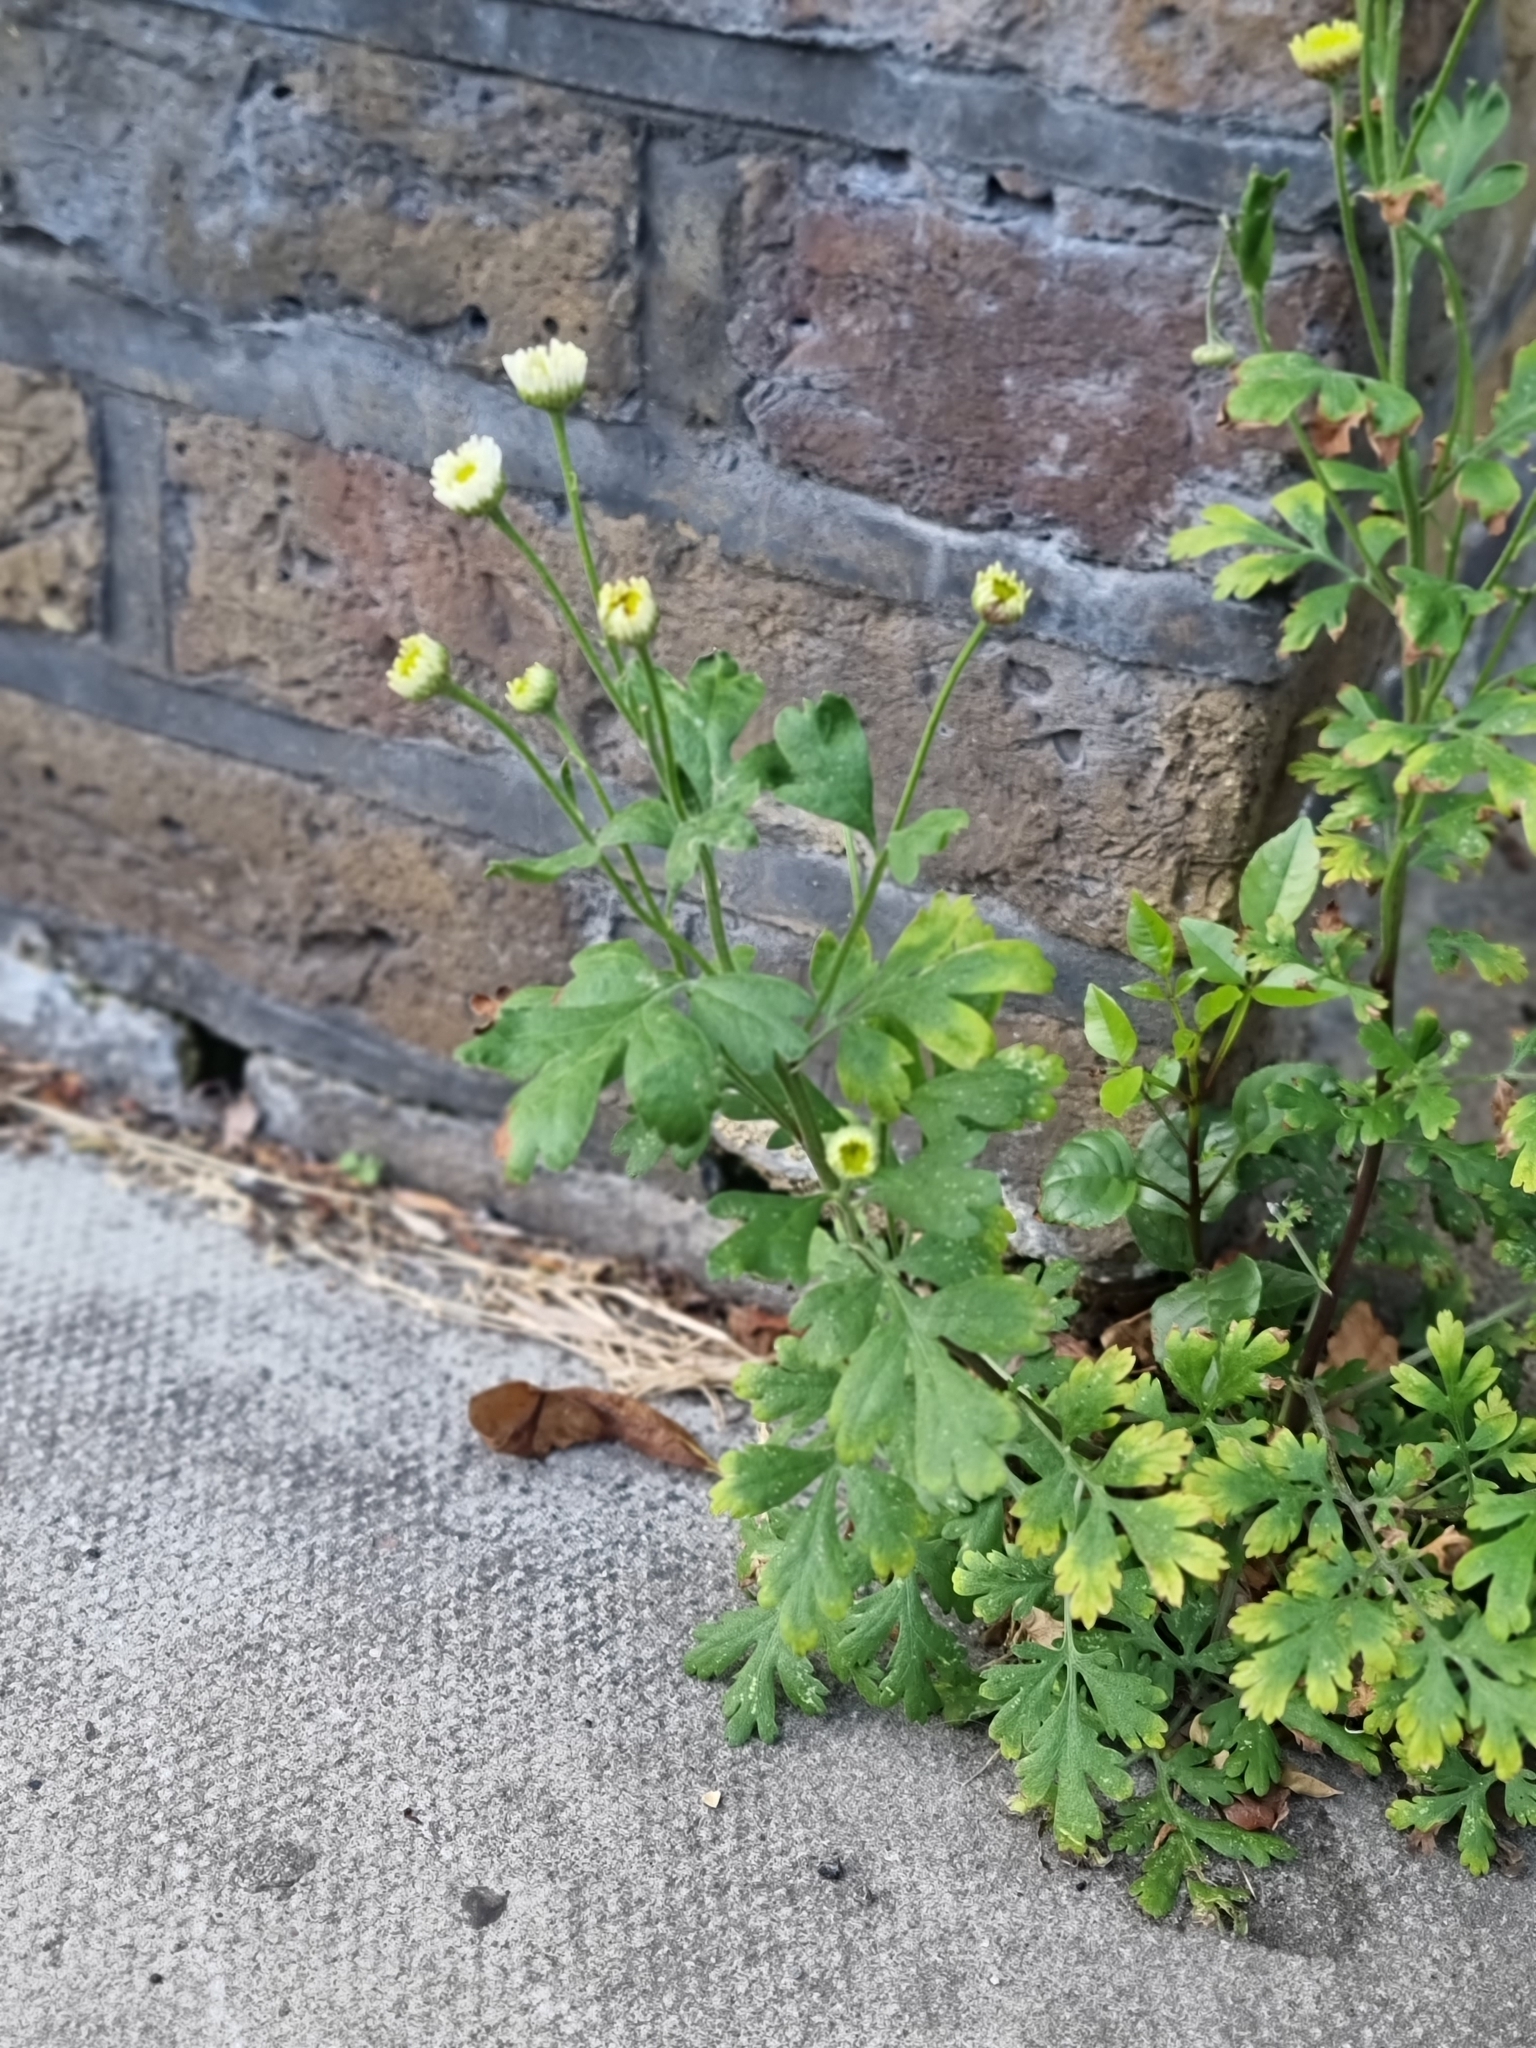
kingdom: Plantae
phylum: Tracheophyta
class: Magnoliopsida
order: Asterales
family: Asteraceae
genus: Tanacetum
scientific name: Tanacetum parthenium
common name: Feverfew
